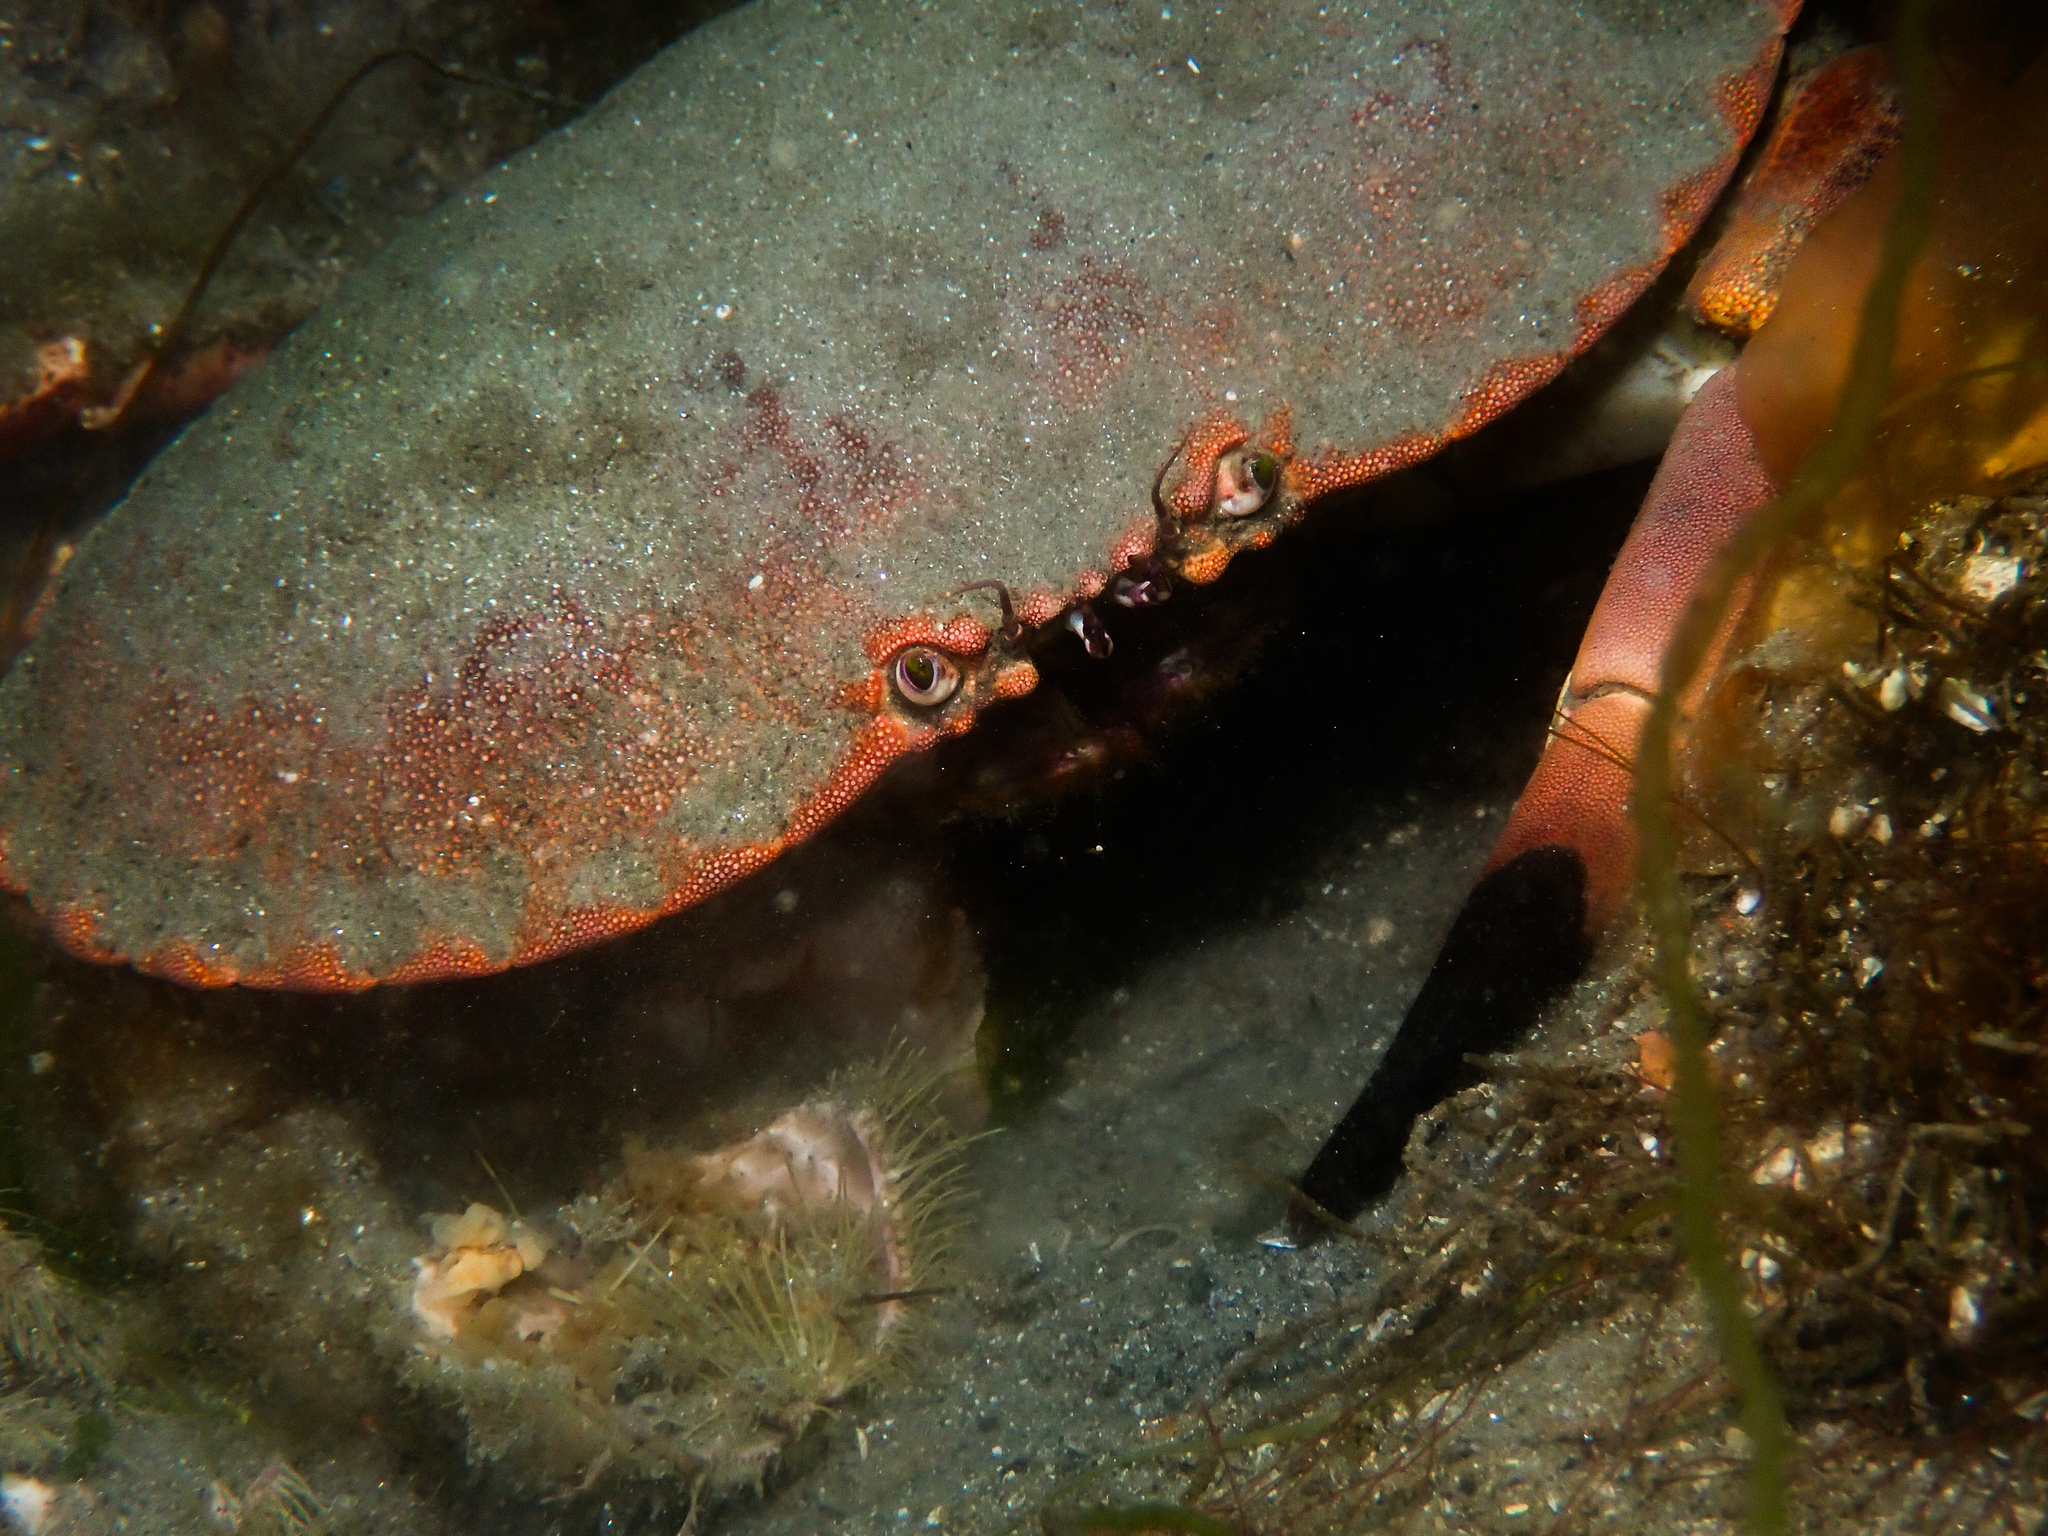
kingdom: Animalia
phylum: Arthropoda
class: Malacostraca
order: Decapoda
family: Cancridae
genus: Cancer
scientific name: Cancer pagurus
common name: Edible crab
